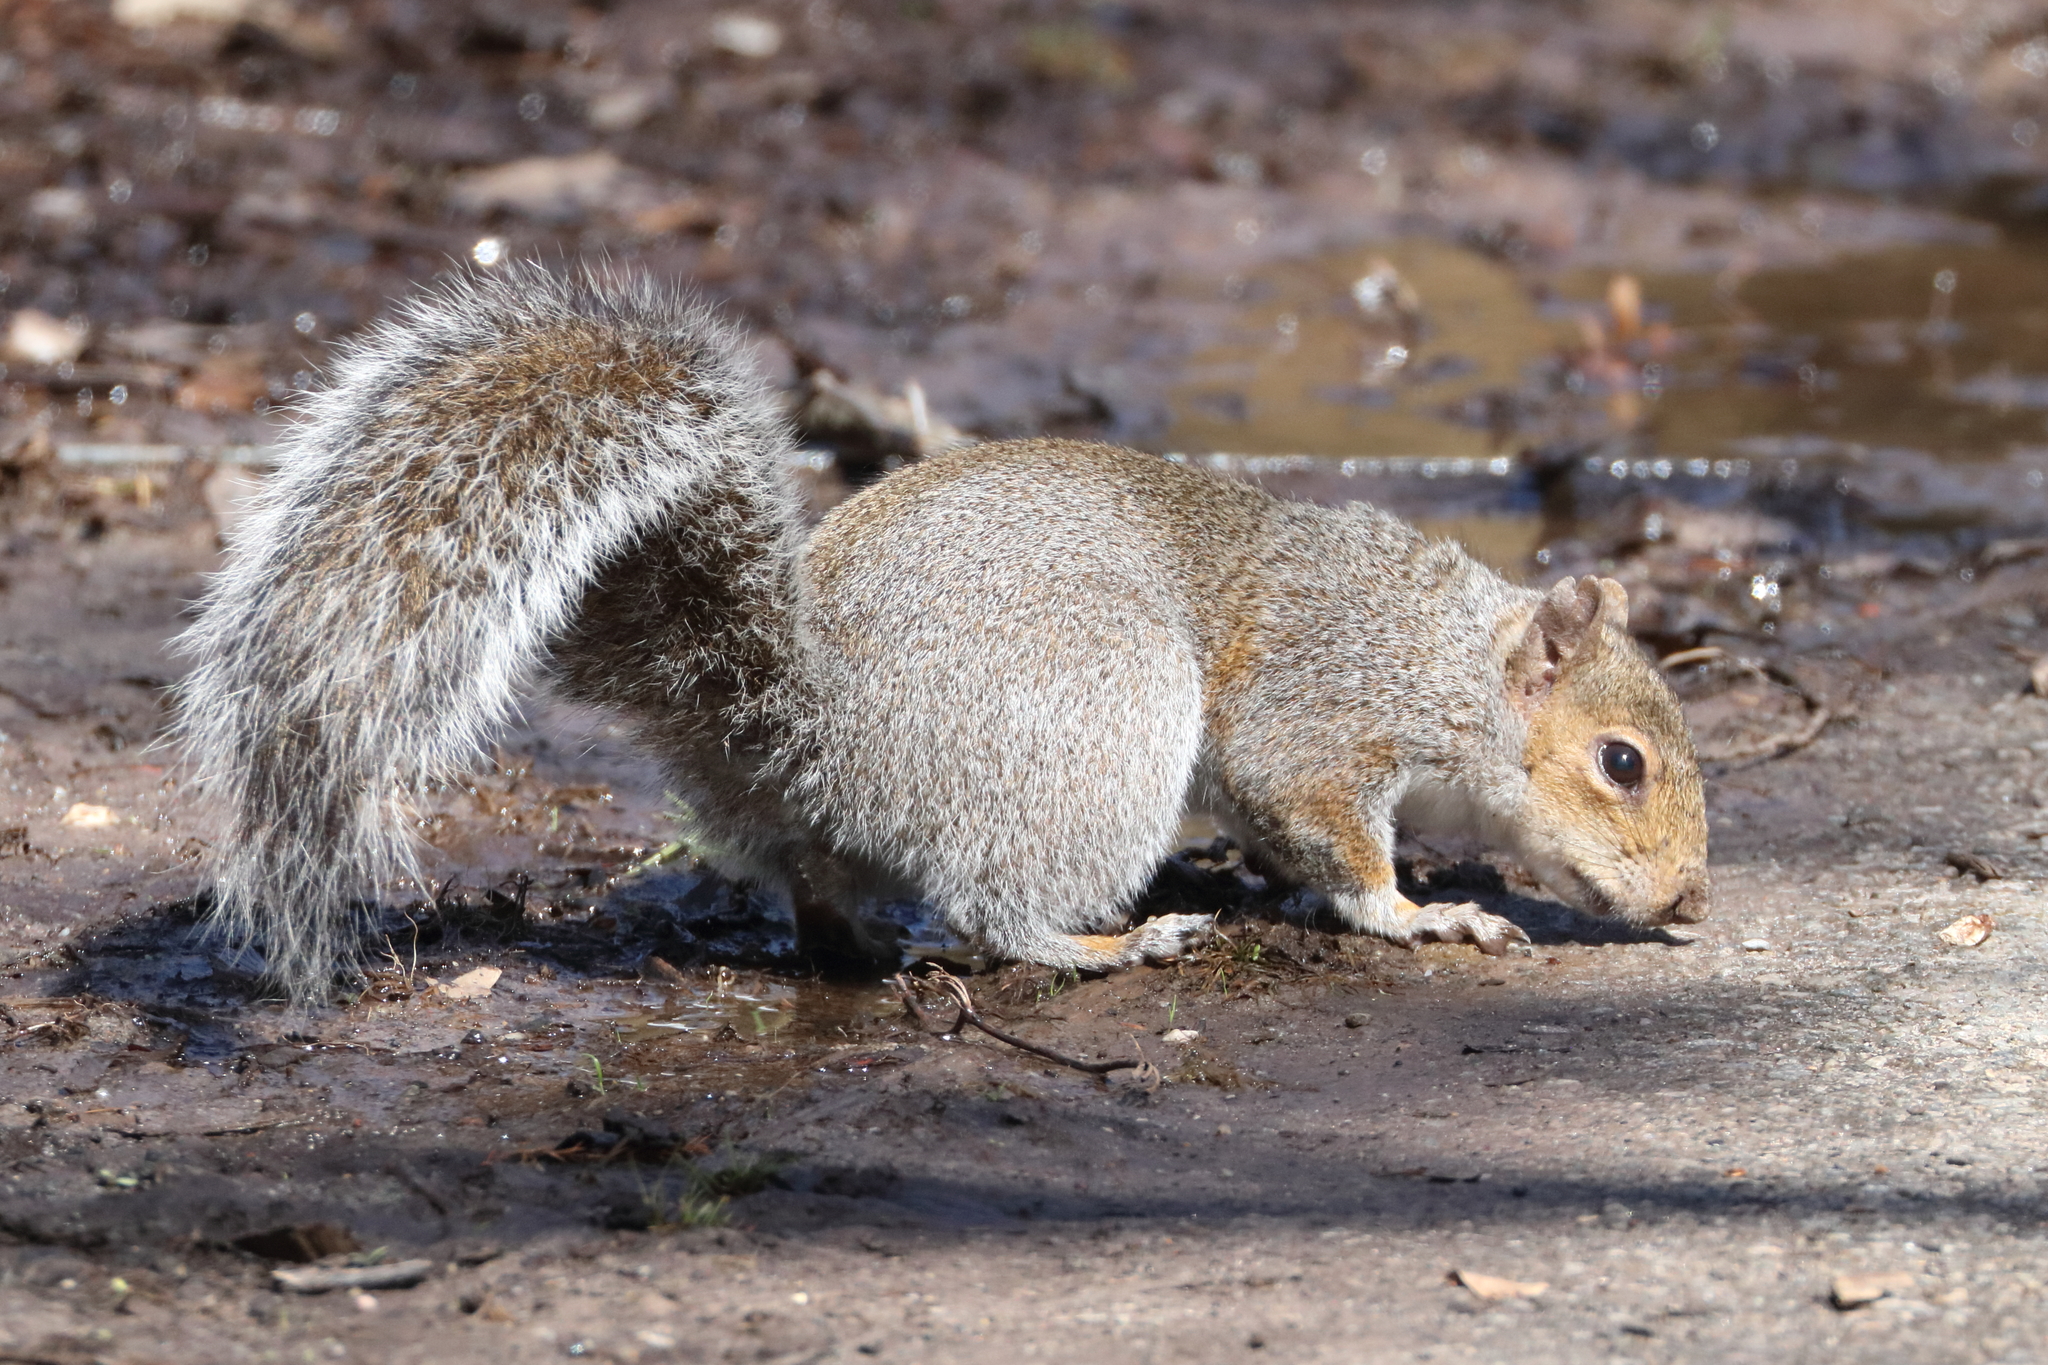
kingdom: Animalia
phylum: Chordata
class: Mammalia
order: Rodentia
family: Sciuridae
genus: Sciurus
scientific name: Sciurus carolinensis
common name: Eastern gray squirrel
